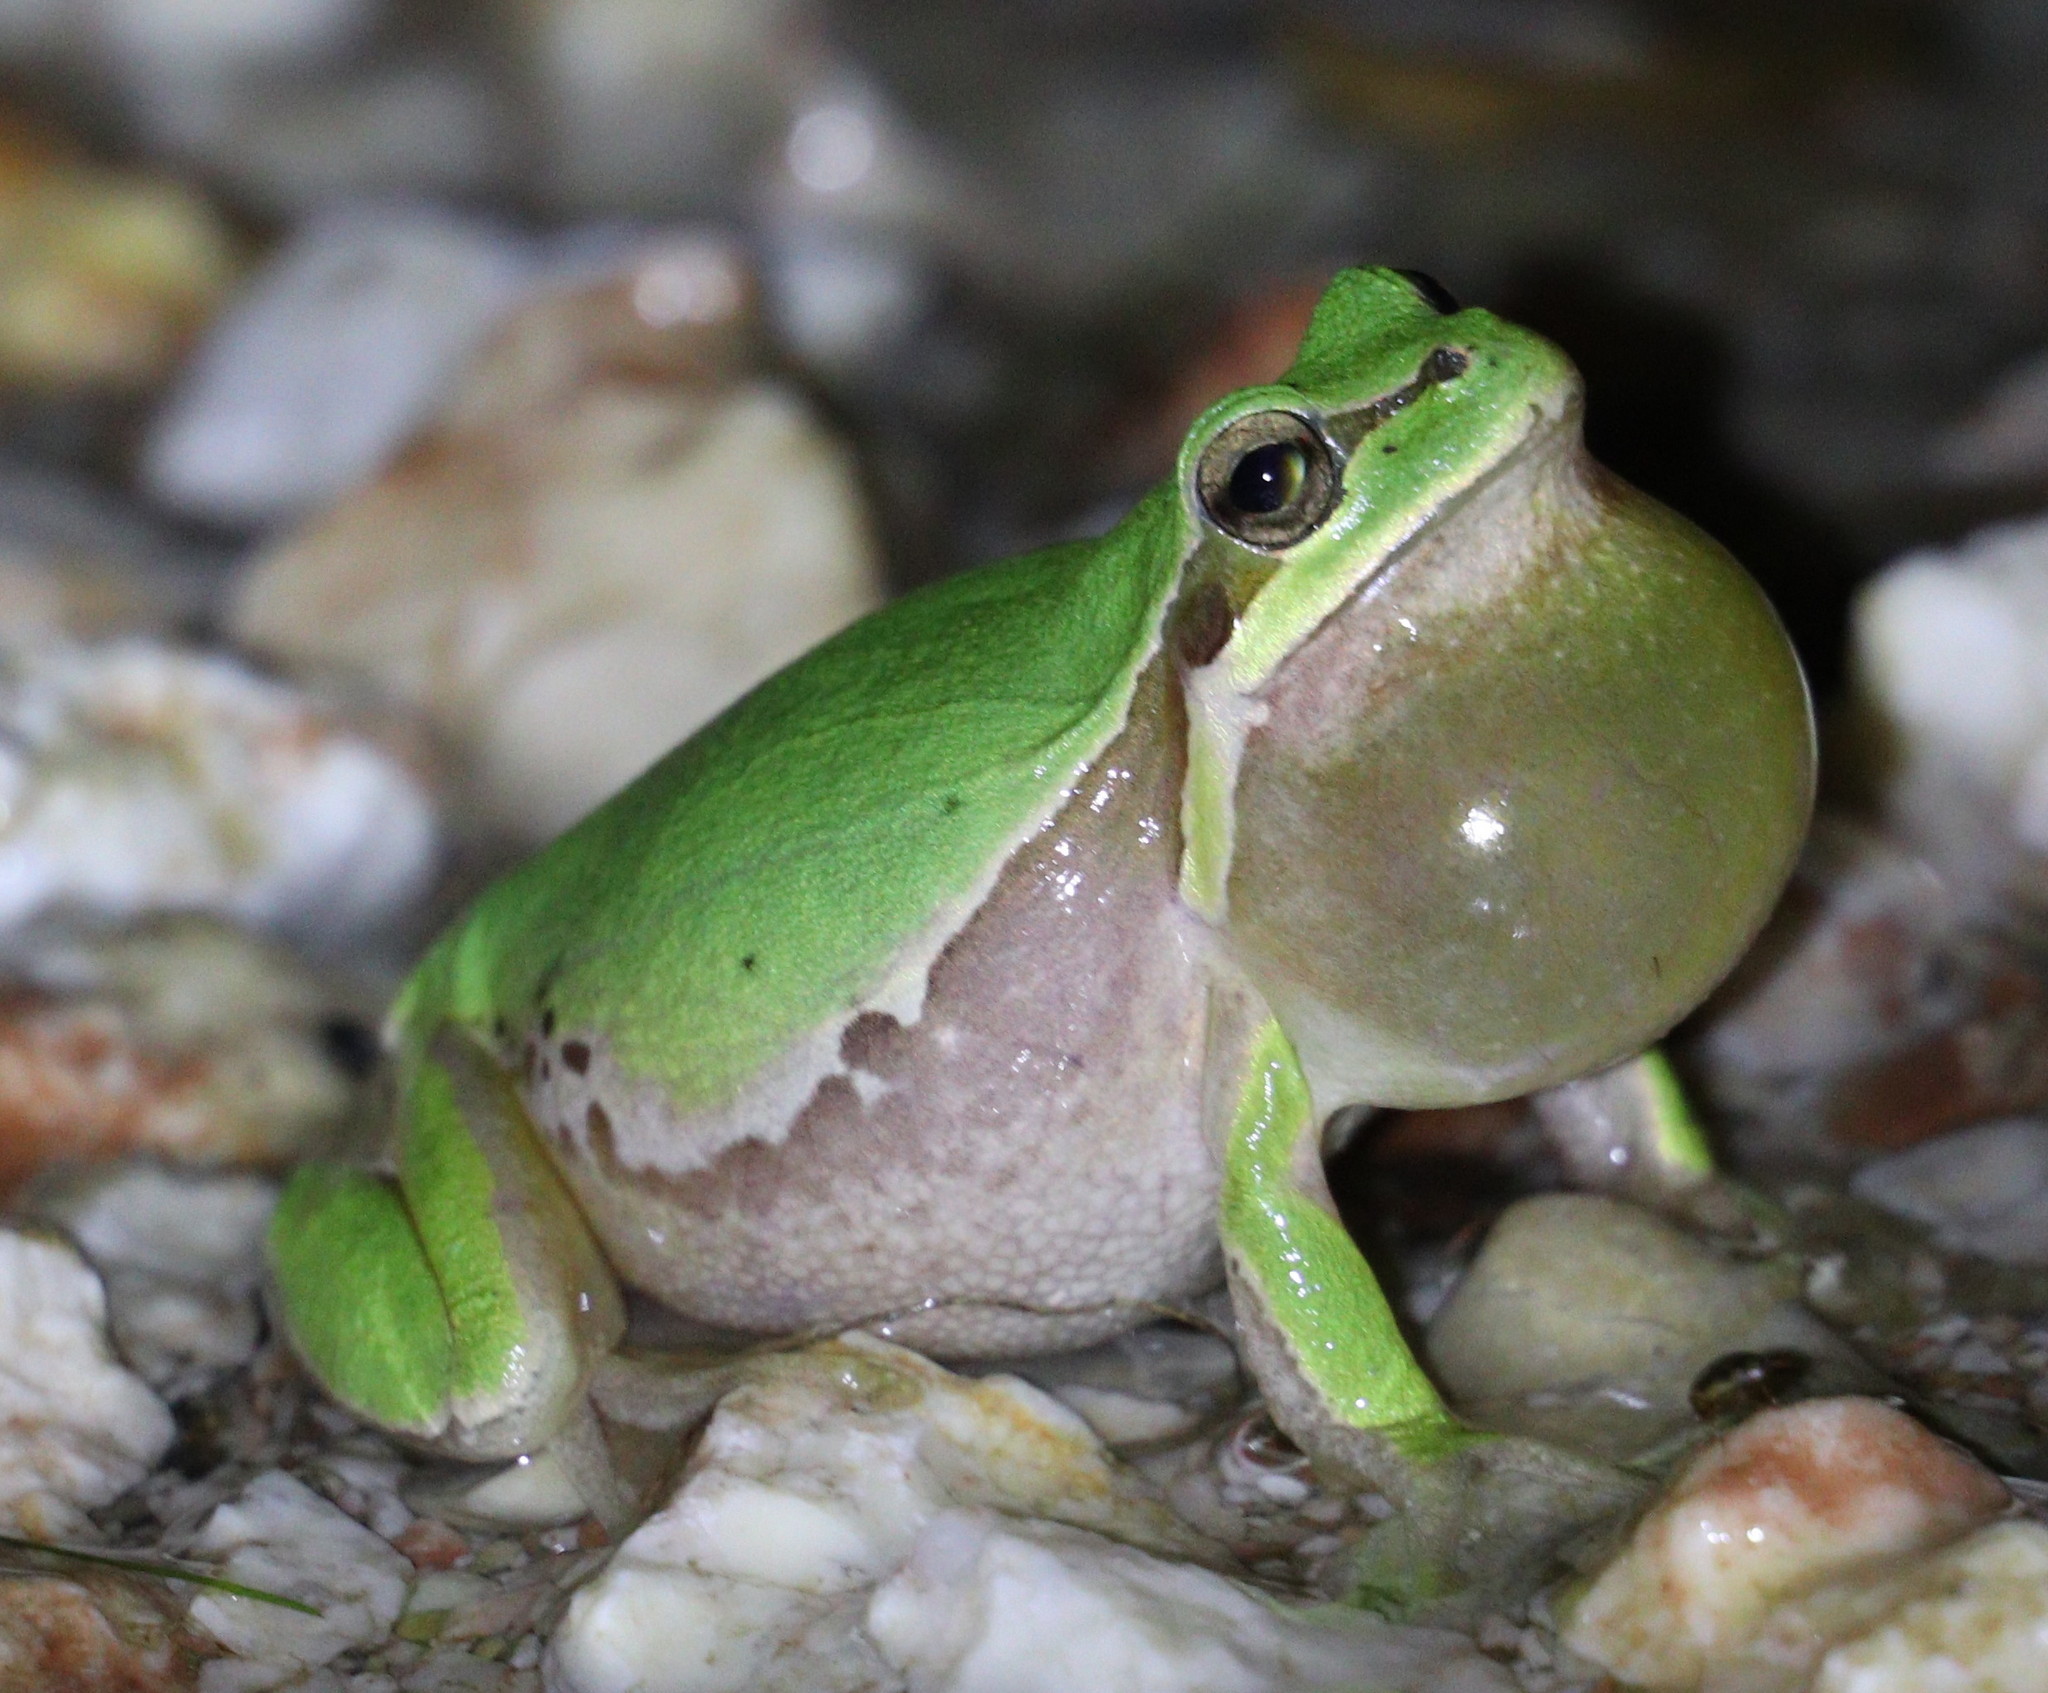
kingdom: Animalia
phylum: Chordata
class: Amphibia
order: Anura
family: Hylidae
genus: Hyla
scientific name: Hyla savignyi
